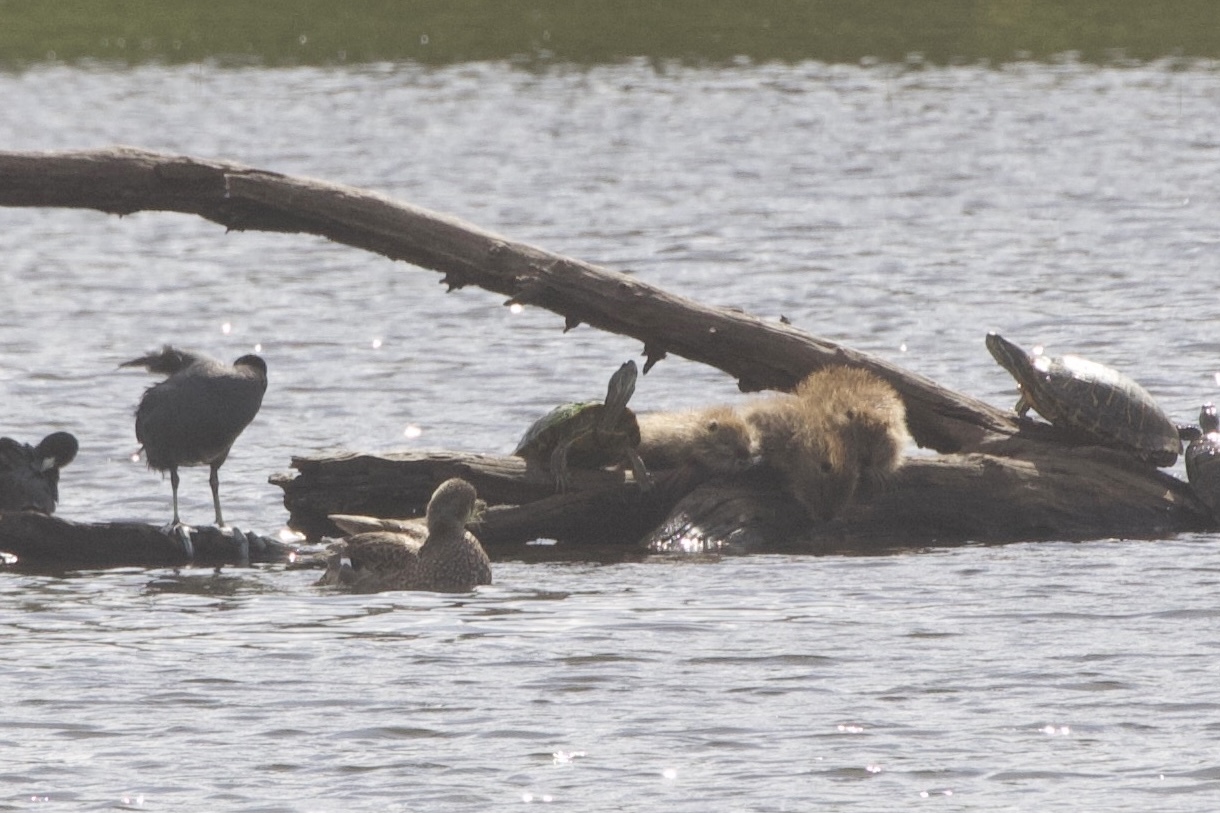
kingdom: Animalia
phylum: Chordata
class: Mammalia
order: Rodentia
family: Myocastoridae
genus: Myocastor
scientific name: Myocastor coypus
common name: Coypu
